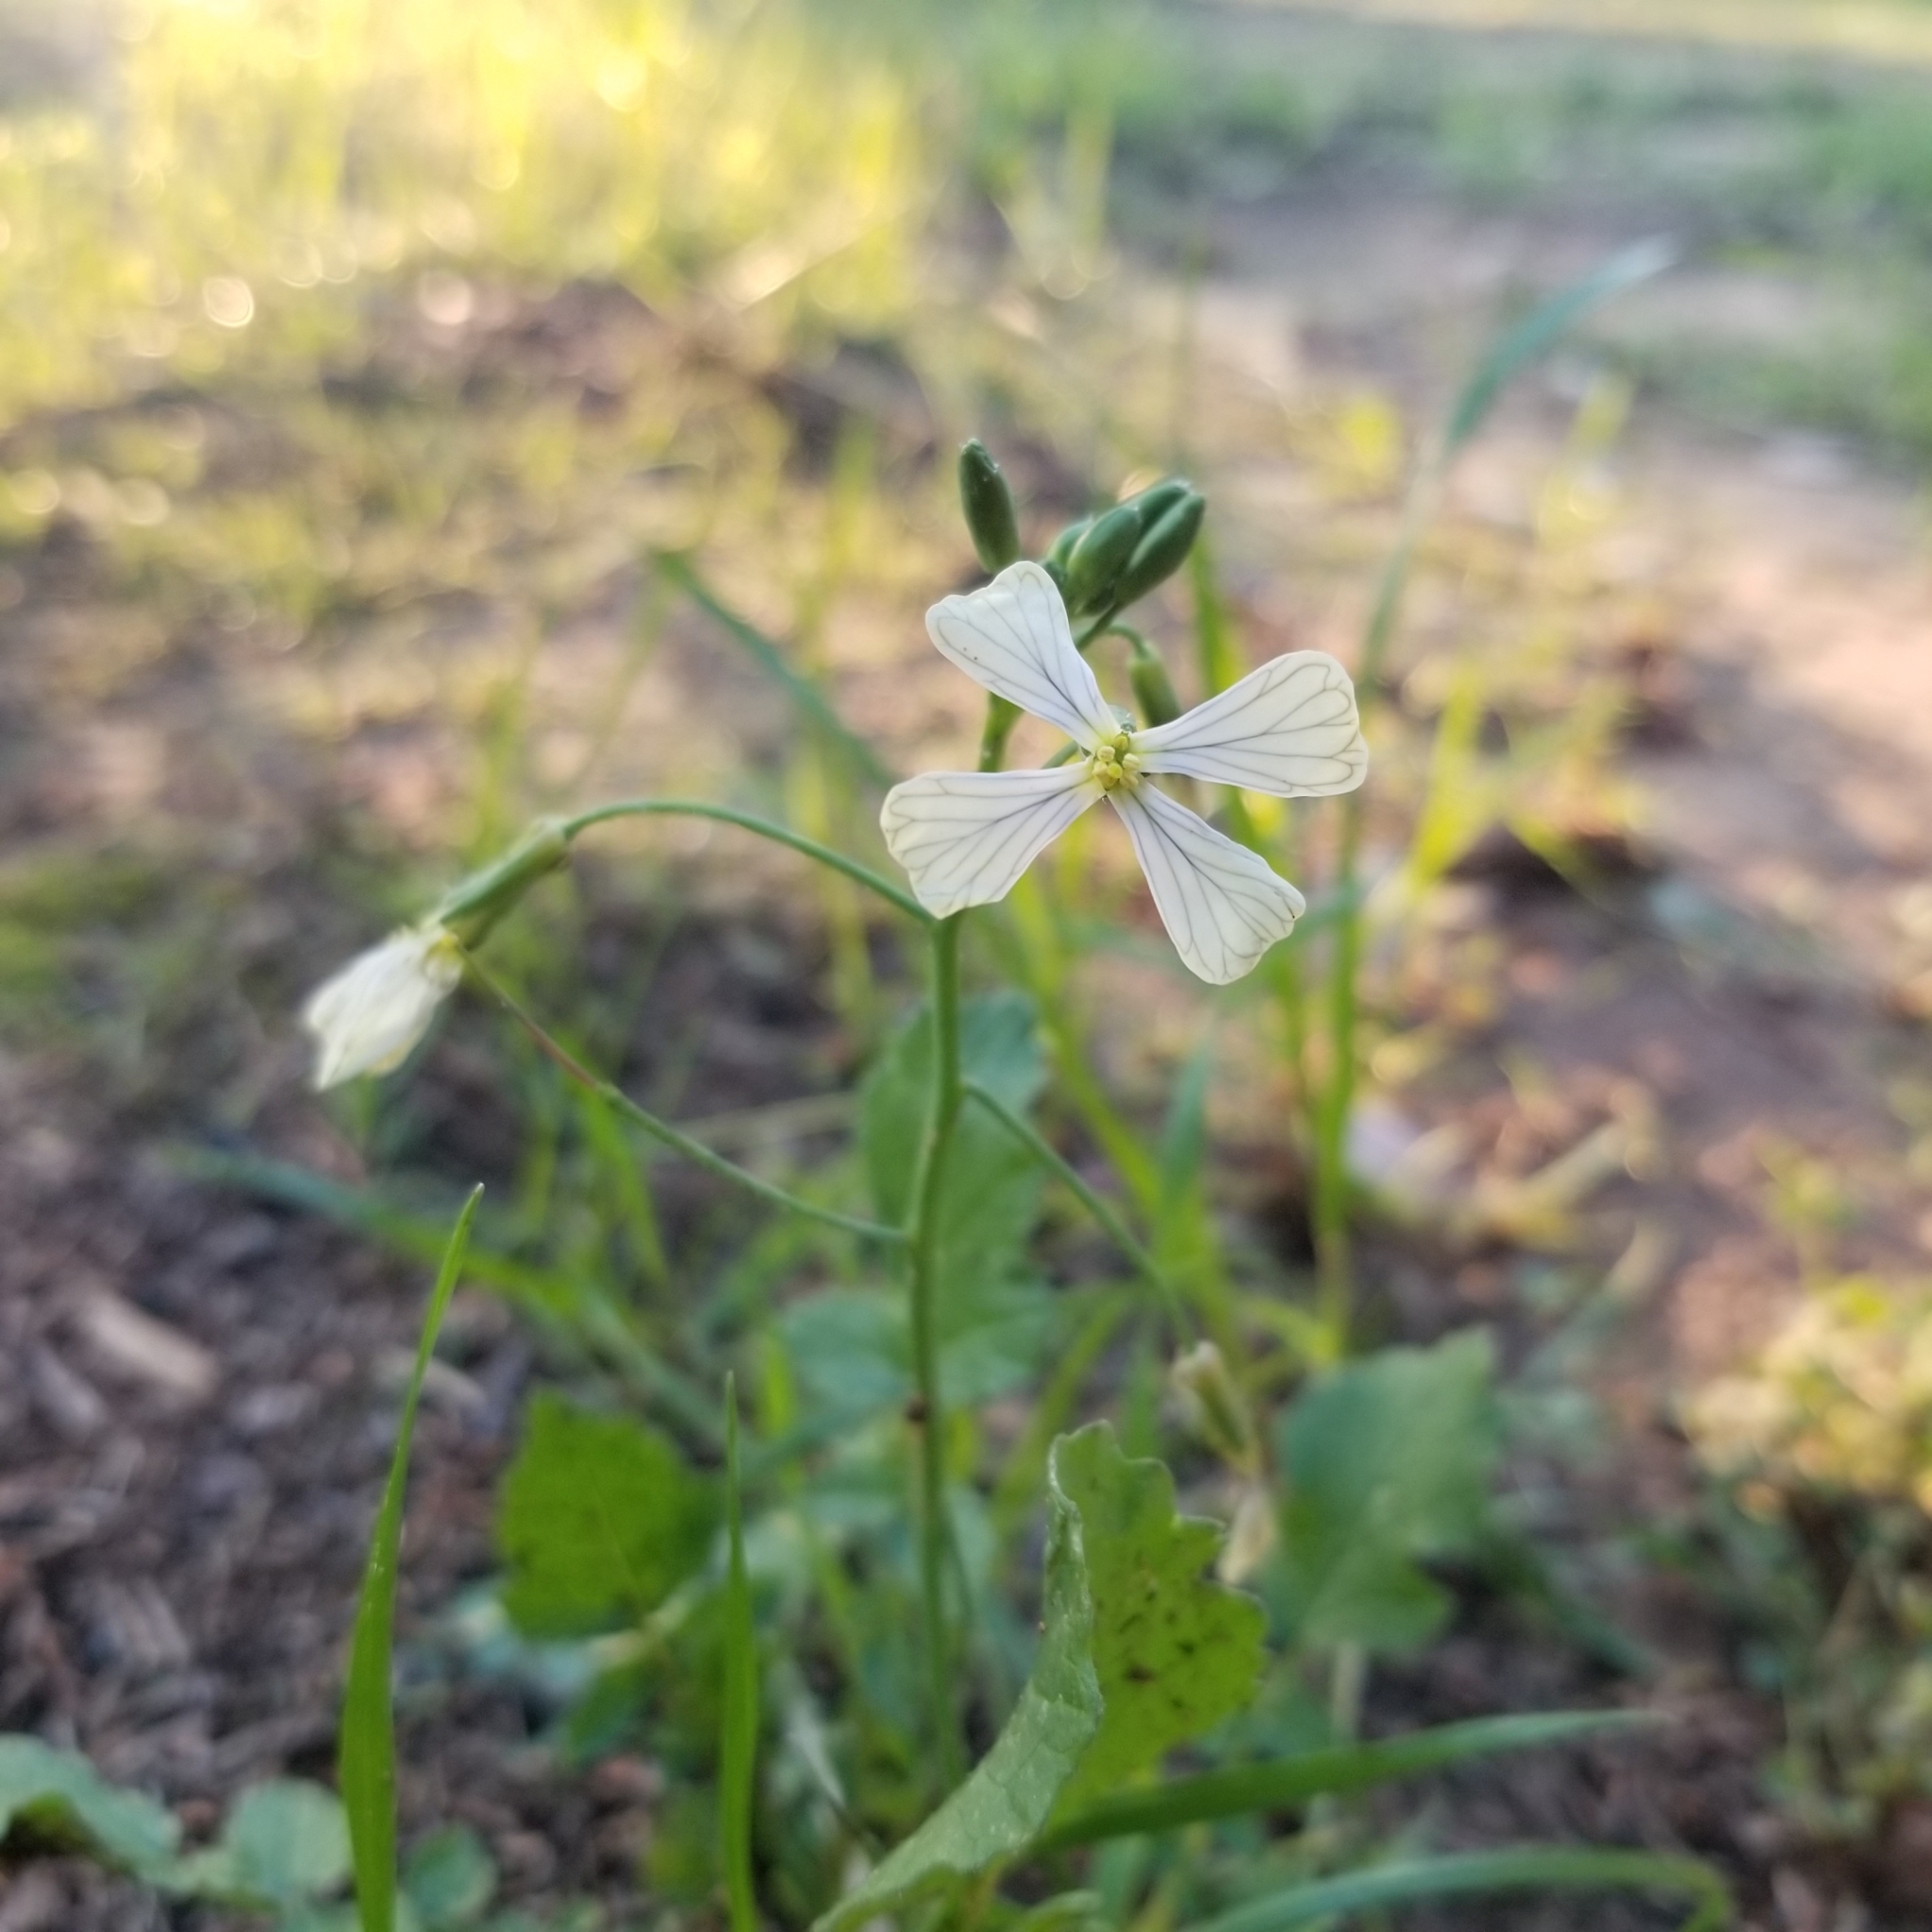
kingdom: Plantae
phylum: Tracheophyta
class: Magnoliopsida
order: Brassicales
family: Brassicaceae
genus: Raphanus
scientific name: Raphanus raphanistrum
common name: Wild radish
